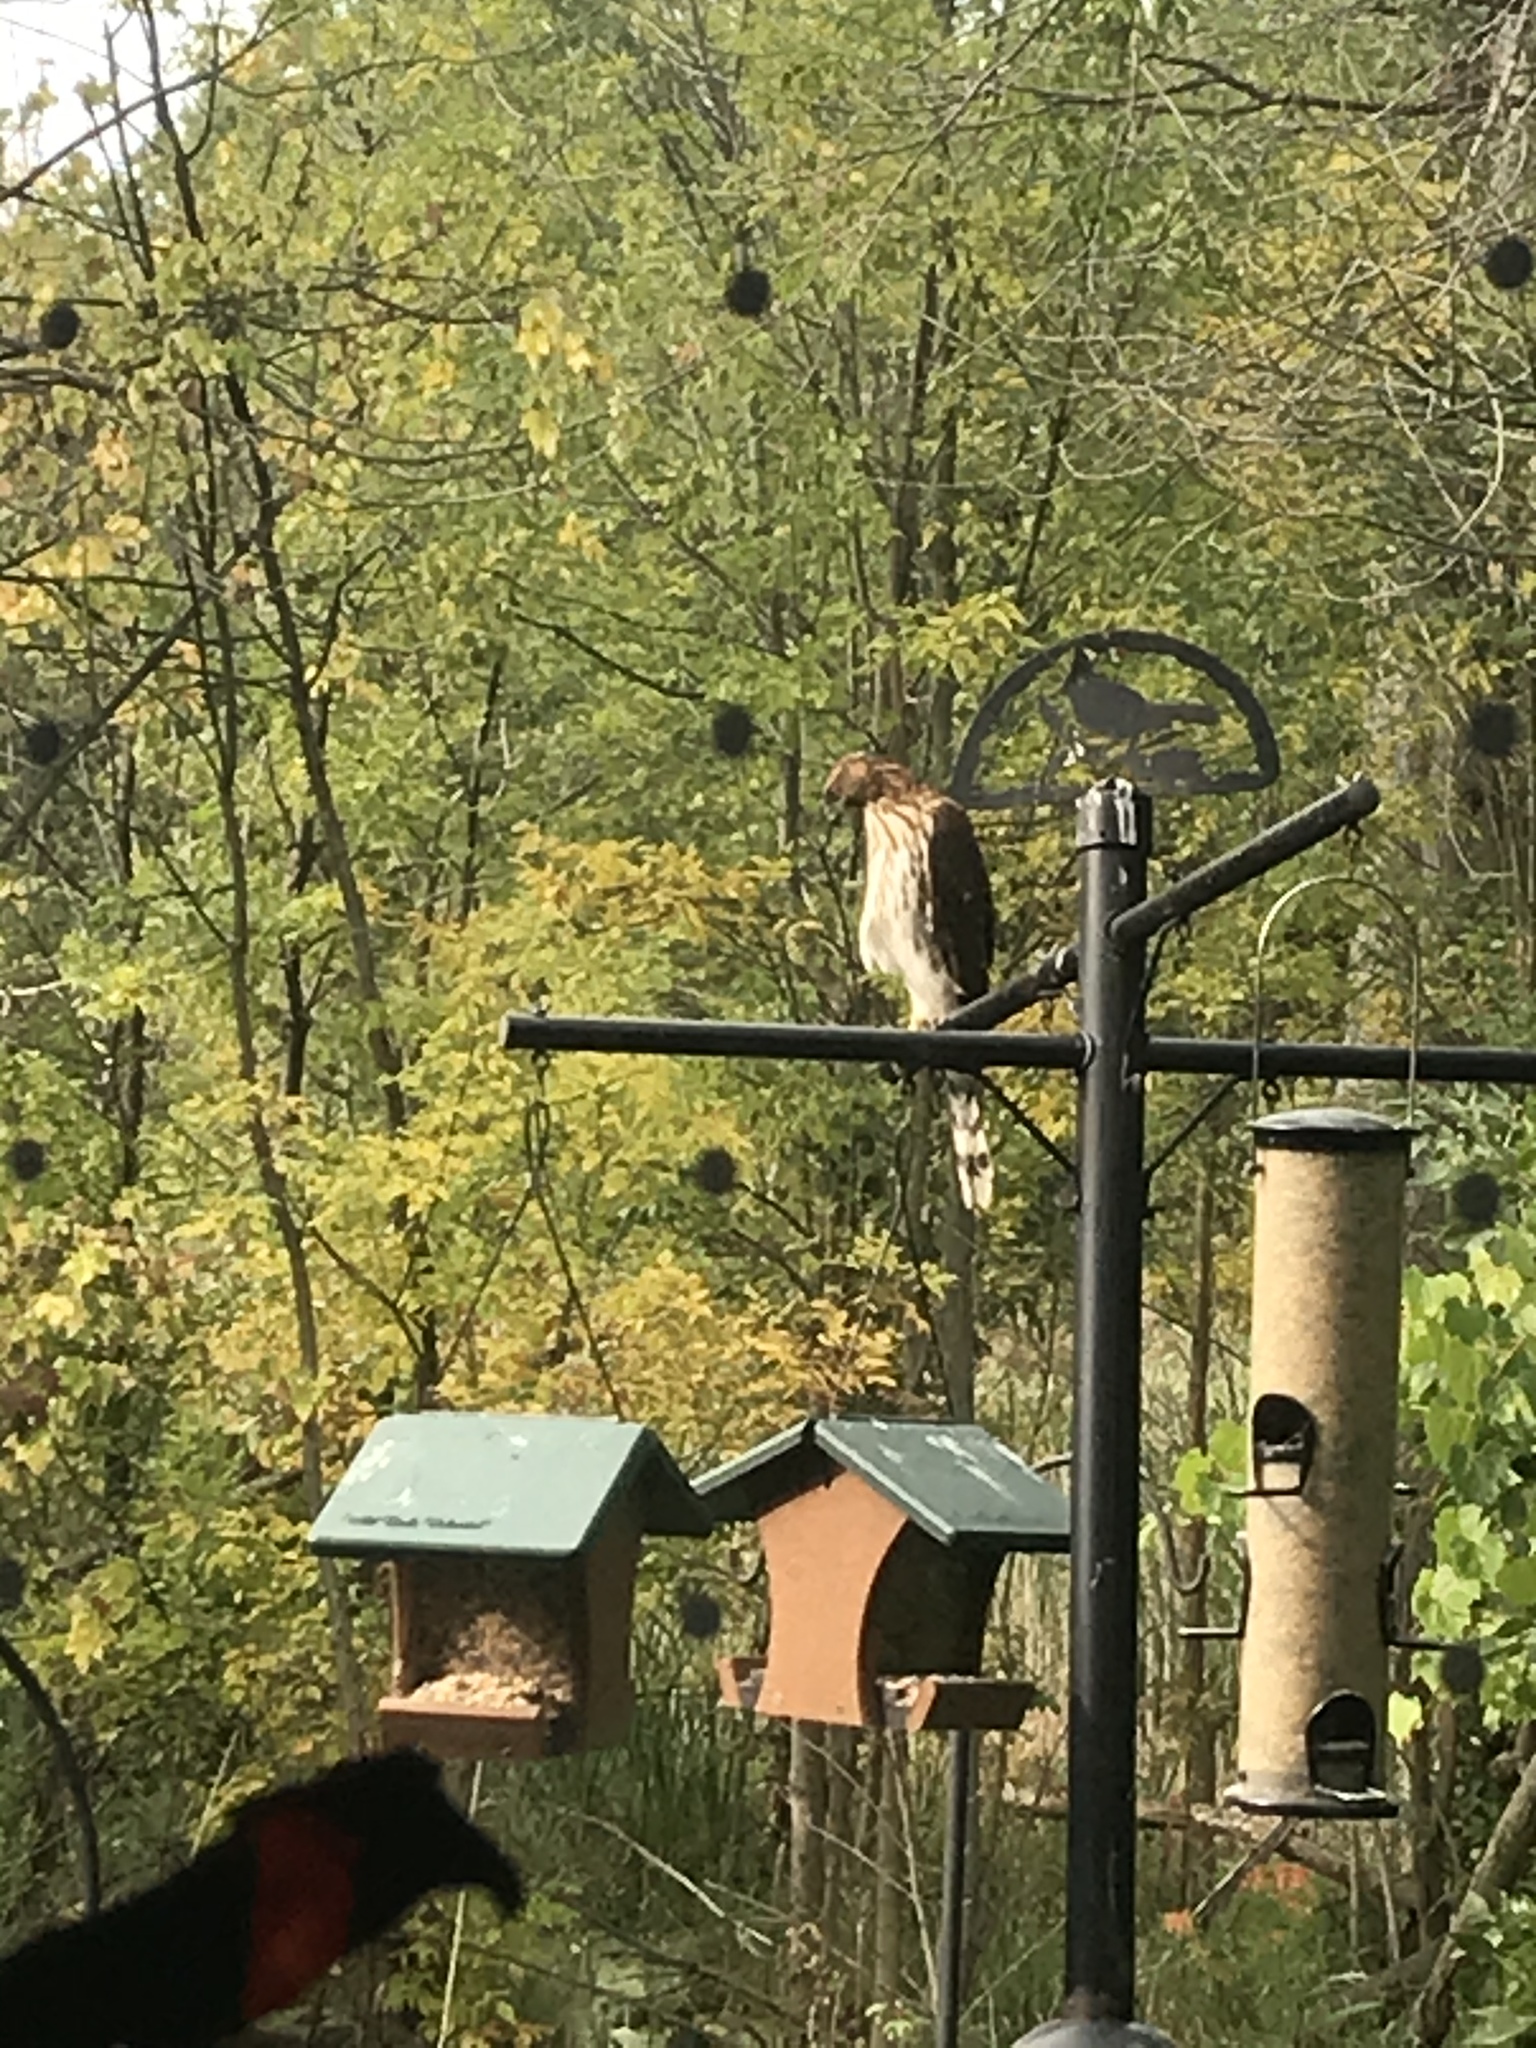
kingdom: Animalia
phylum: Chordata
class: Aves
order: Accipitriformes
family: Accipitridae
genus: Accipiter
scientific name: Accipiter cooperii
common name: Cooper's hawk
